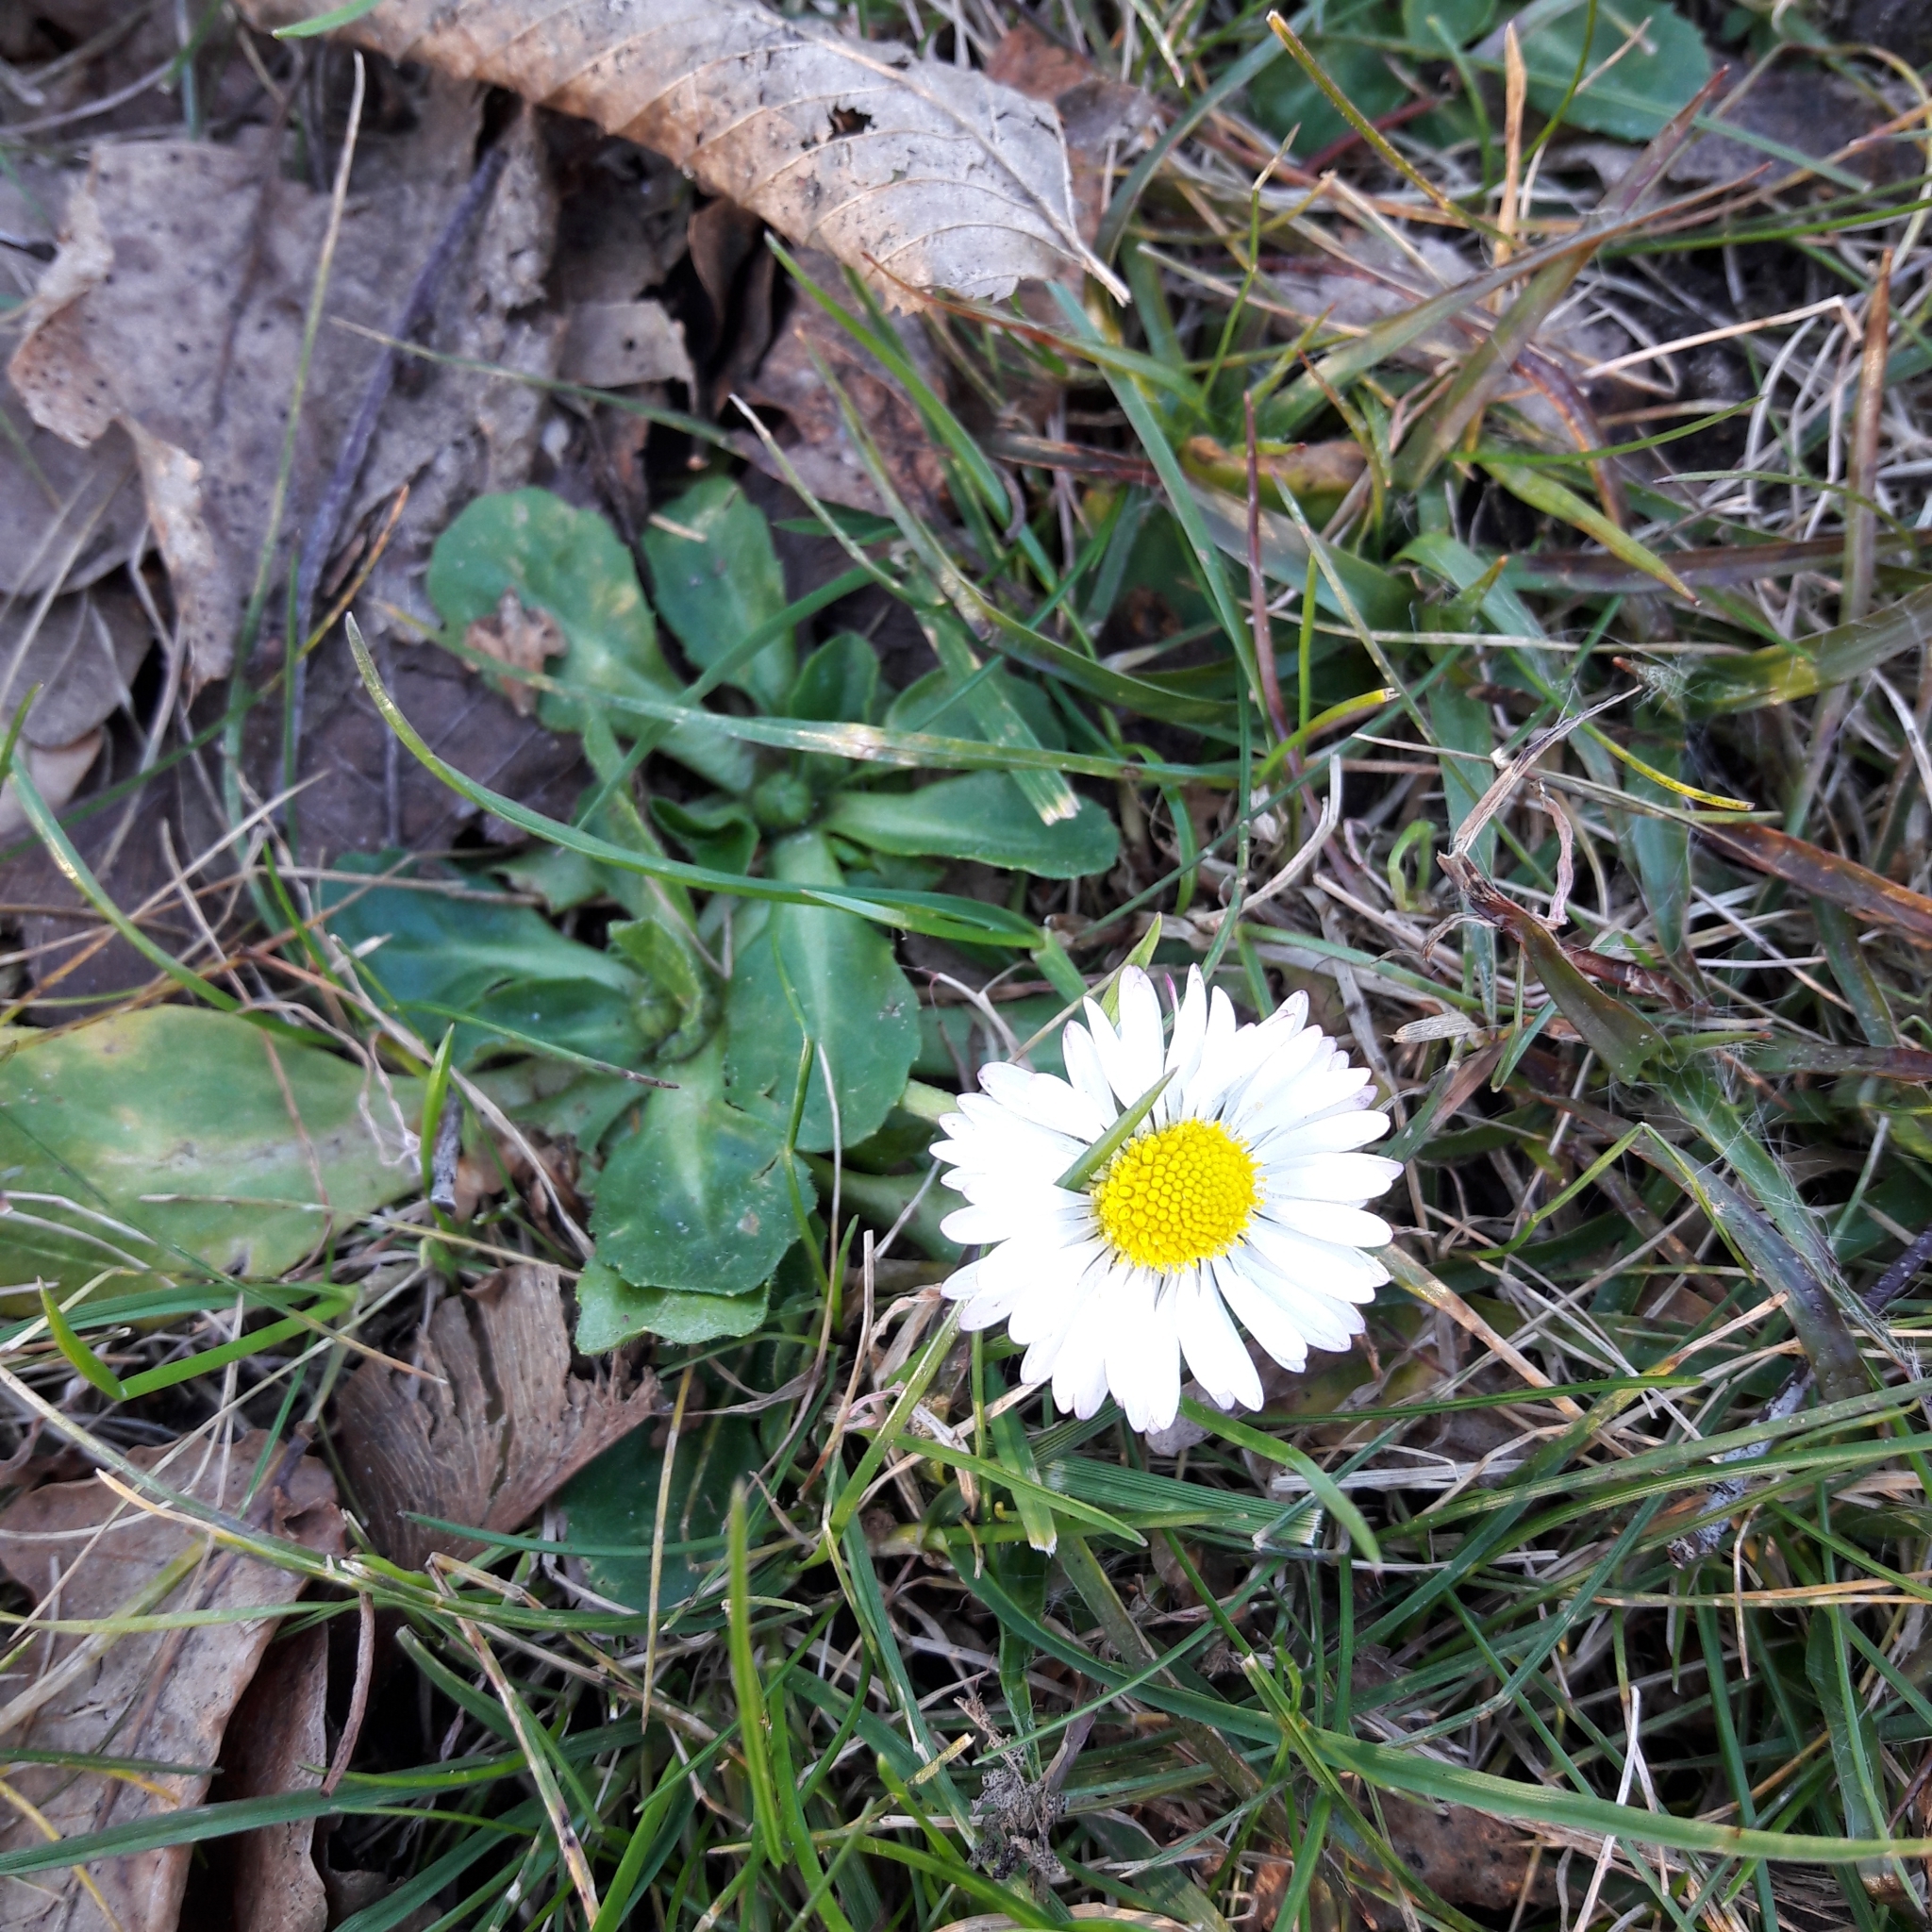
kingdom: Plantae
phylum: Tracheophyta
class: Magnoliopsida
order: Asterales
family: Asteraceae
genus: Bellis
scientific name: Bellis perennis
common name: Lawndaisy
